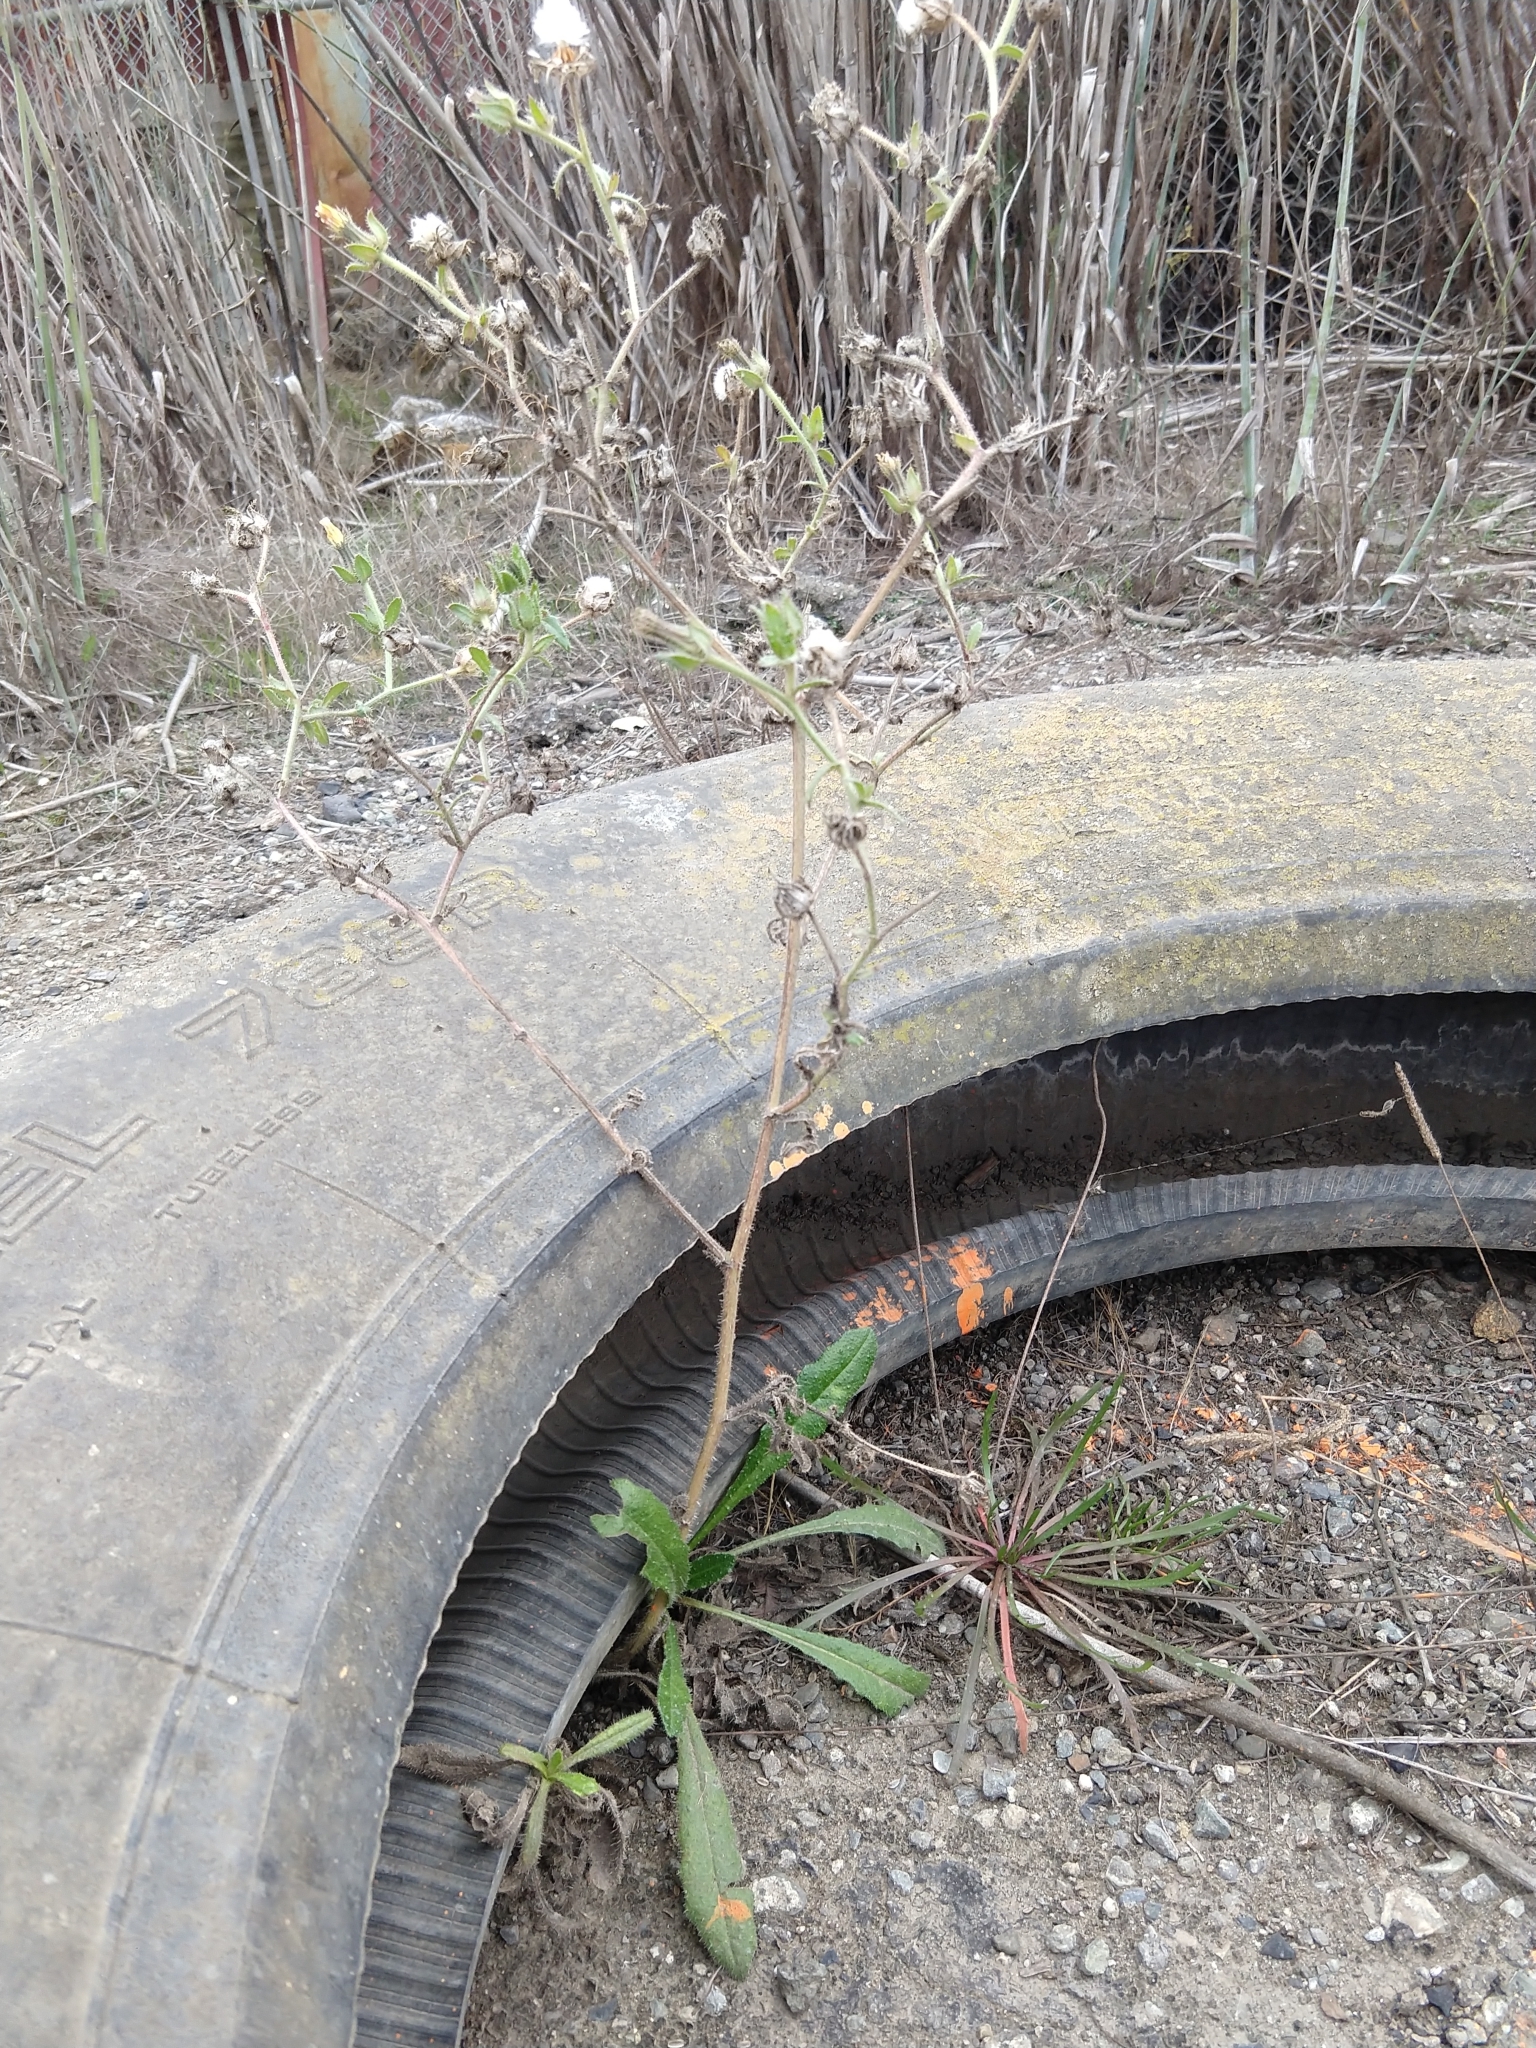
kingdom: Plantae
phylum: Tracheophyta
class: Magnoliopsida
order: Asterales
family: Asteraceae
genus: Helminthotheca
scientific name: Helminthotheca echioides
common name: Ox-tongue
